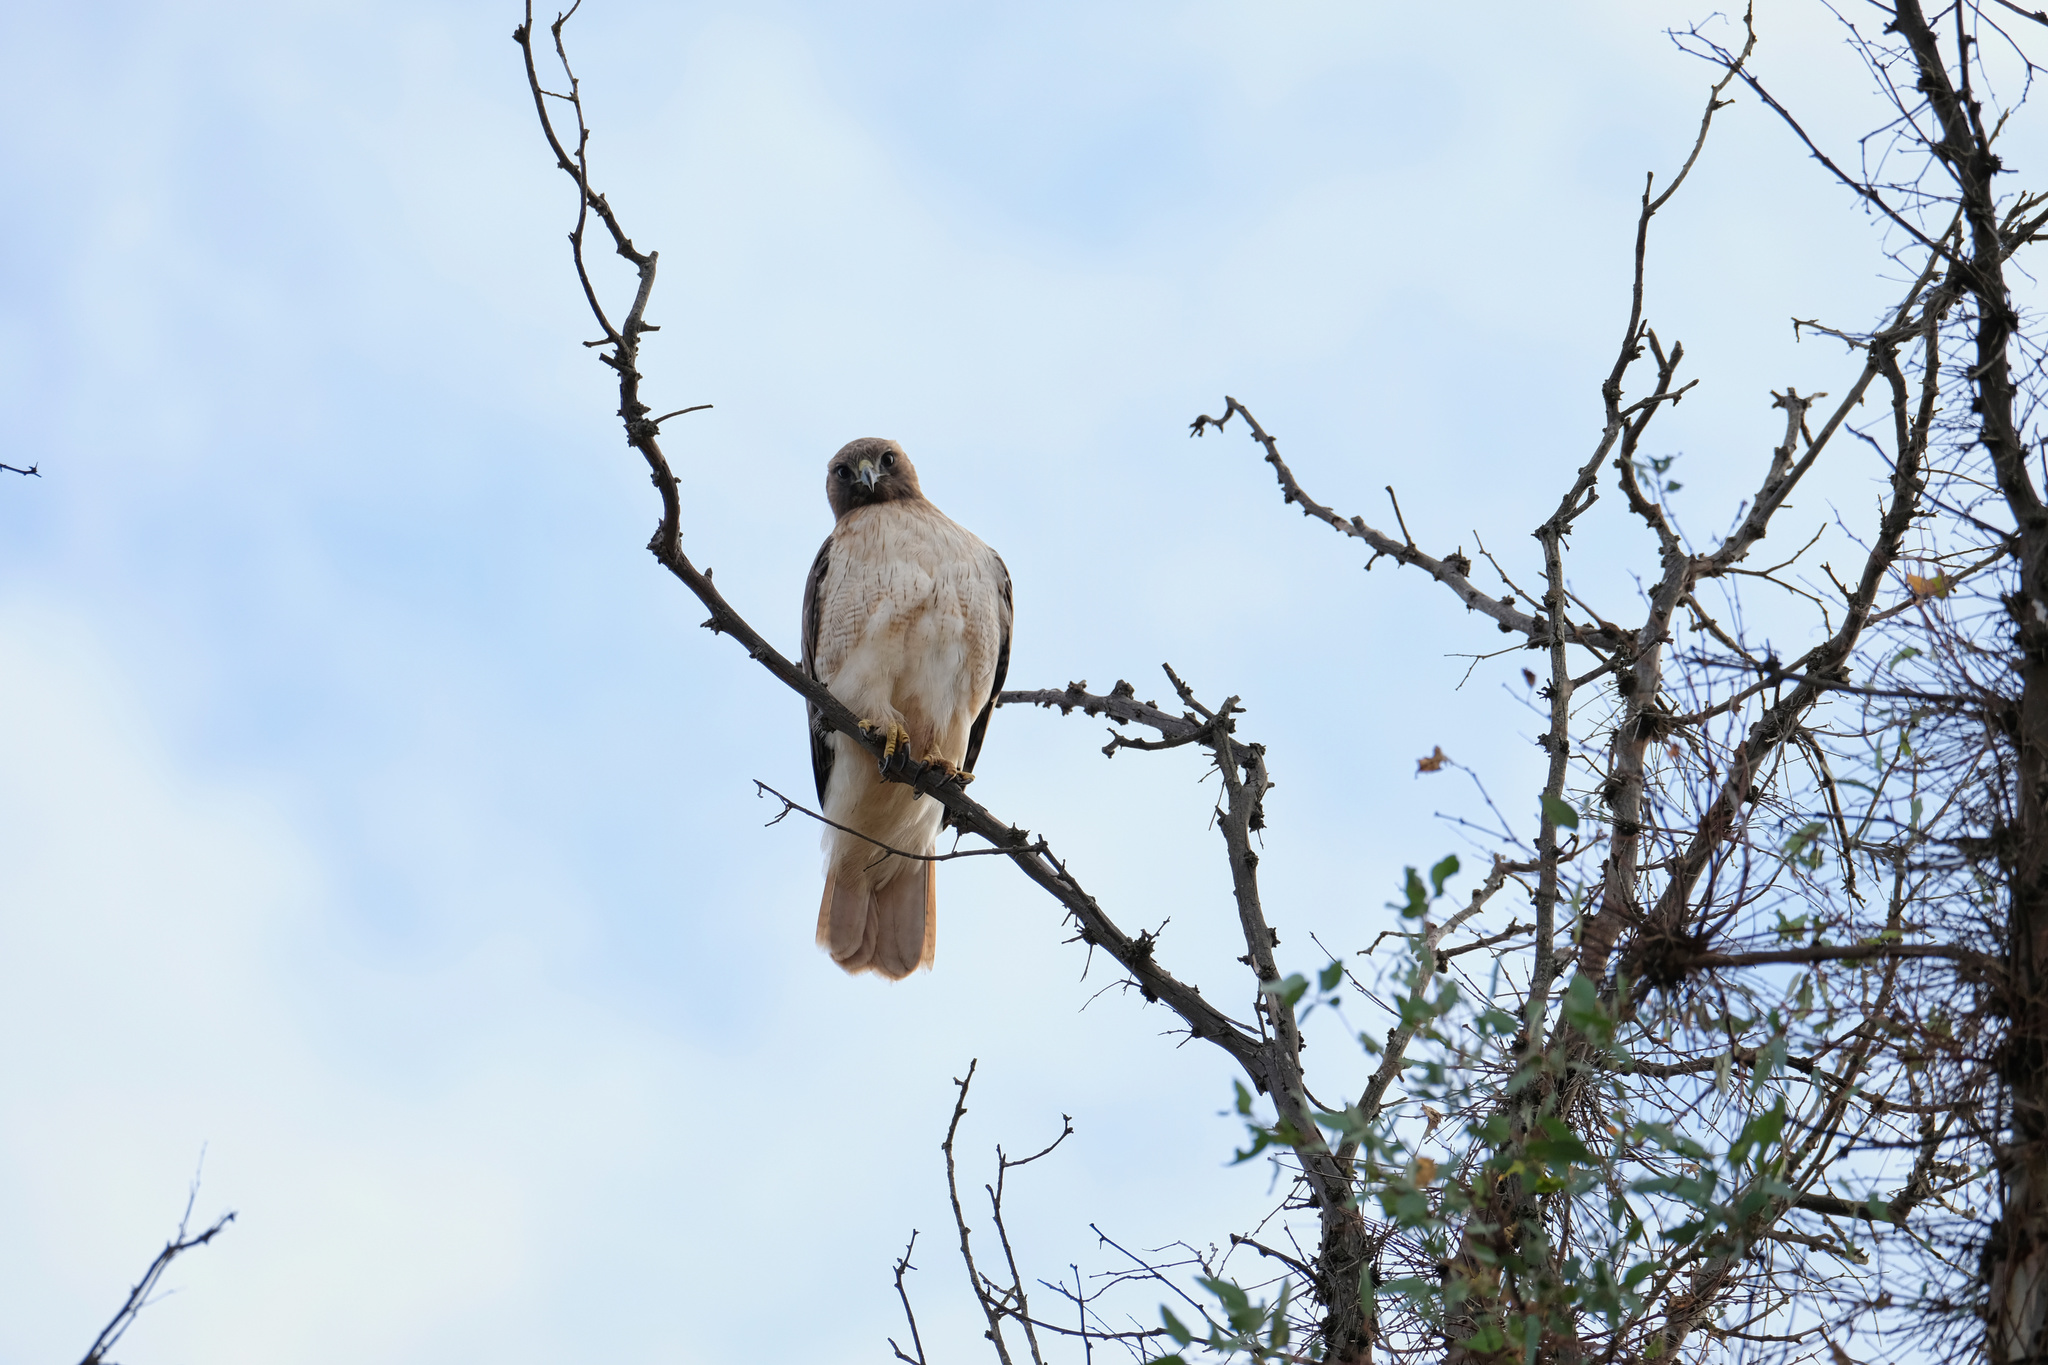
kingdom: Animalia
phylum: Chordata
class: Aves
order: Accipitriformes
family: Accipitridae
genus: Buteo
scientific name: Buteo jamaicensis
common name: Red-tailed hawk
